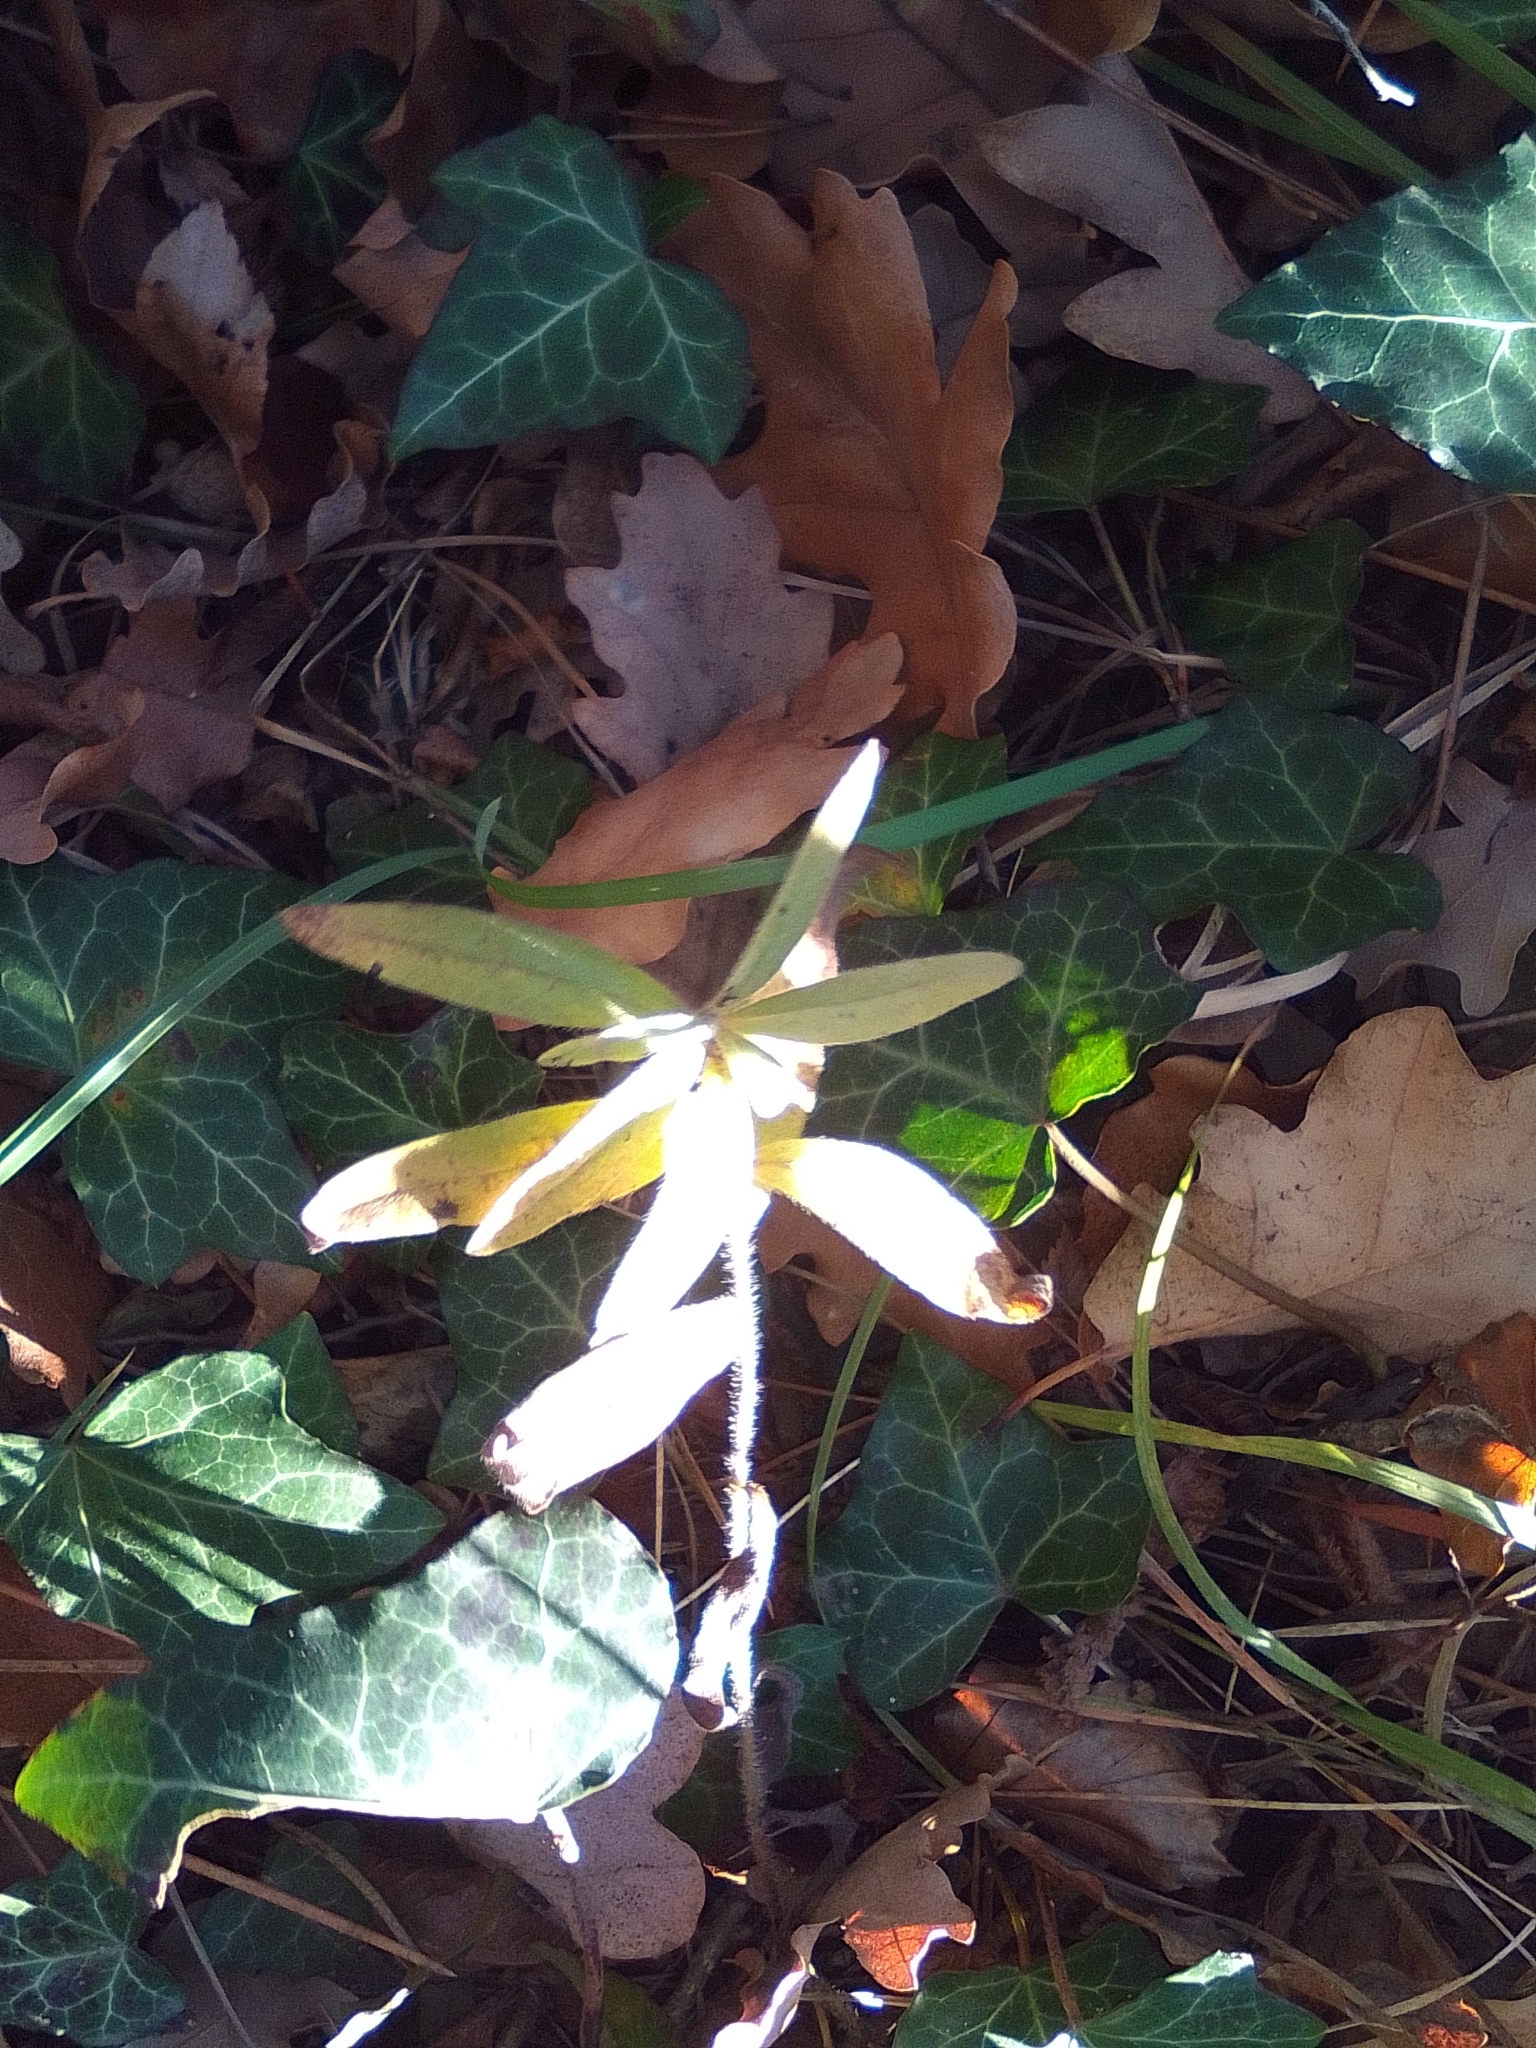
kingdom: Plantae
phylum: Tracheophyta
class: Magnoliopsida
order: Boraginales
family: Boraginaceae
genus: Aegonychon
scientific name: Aegonychon purpurocaeruleum
